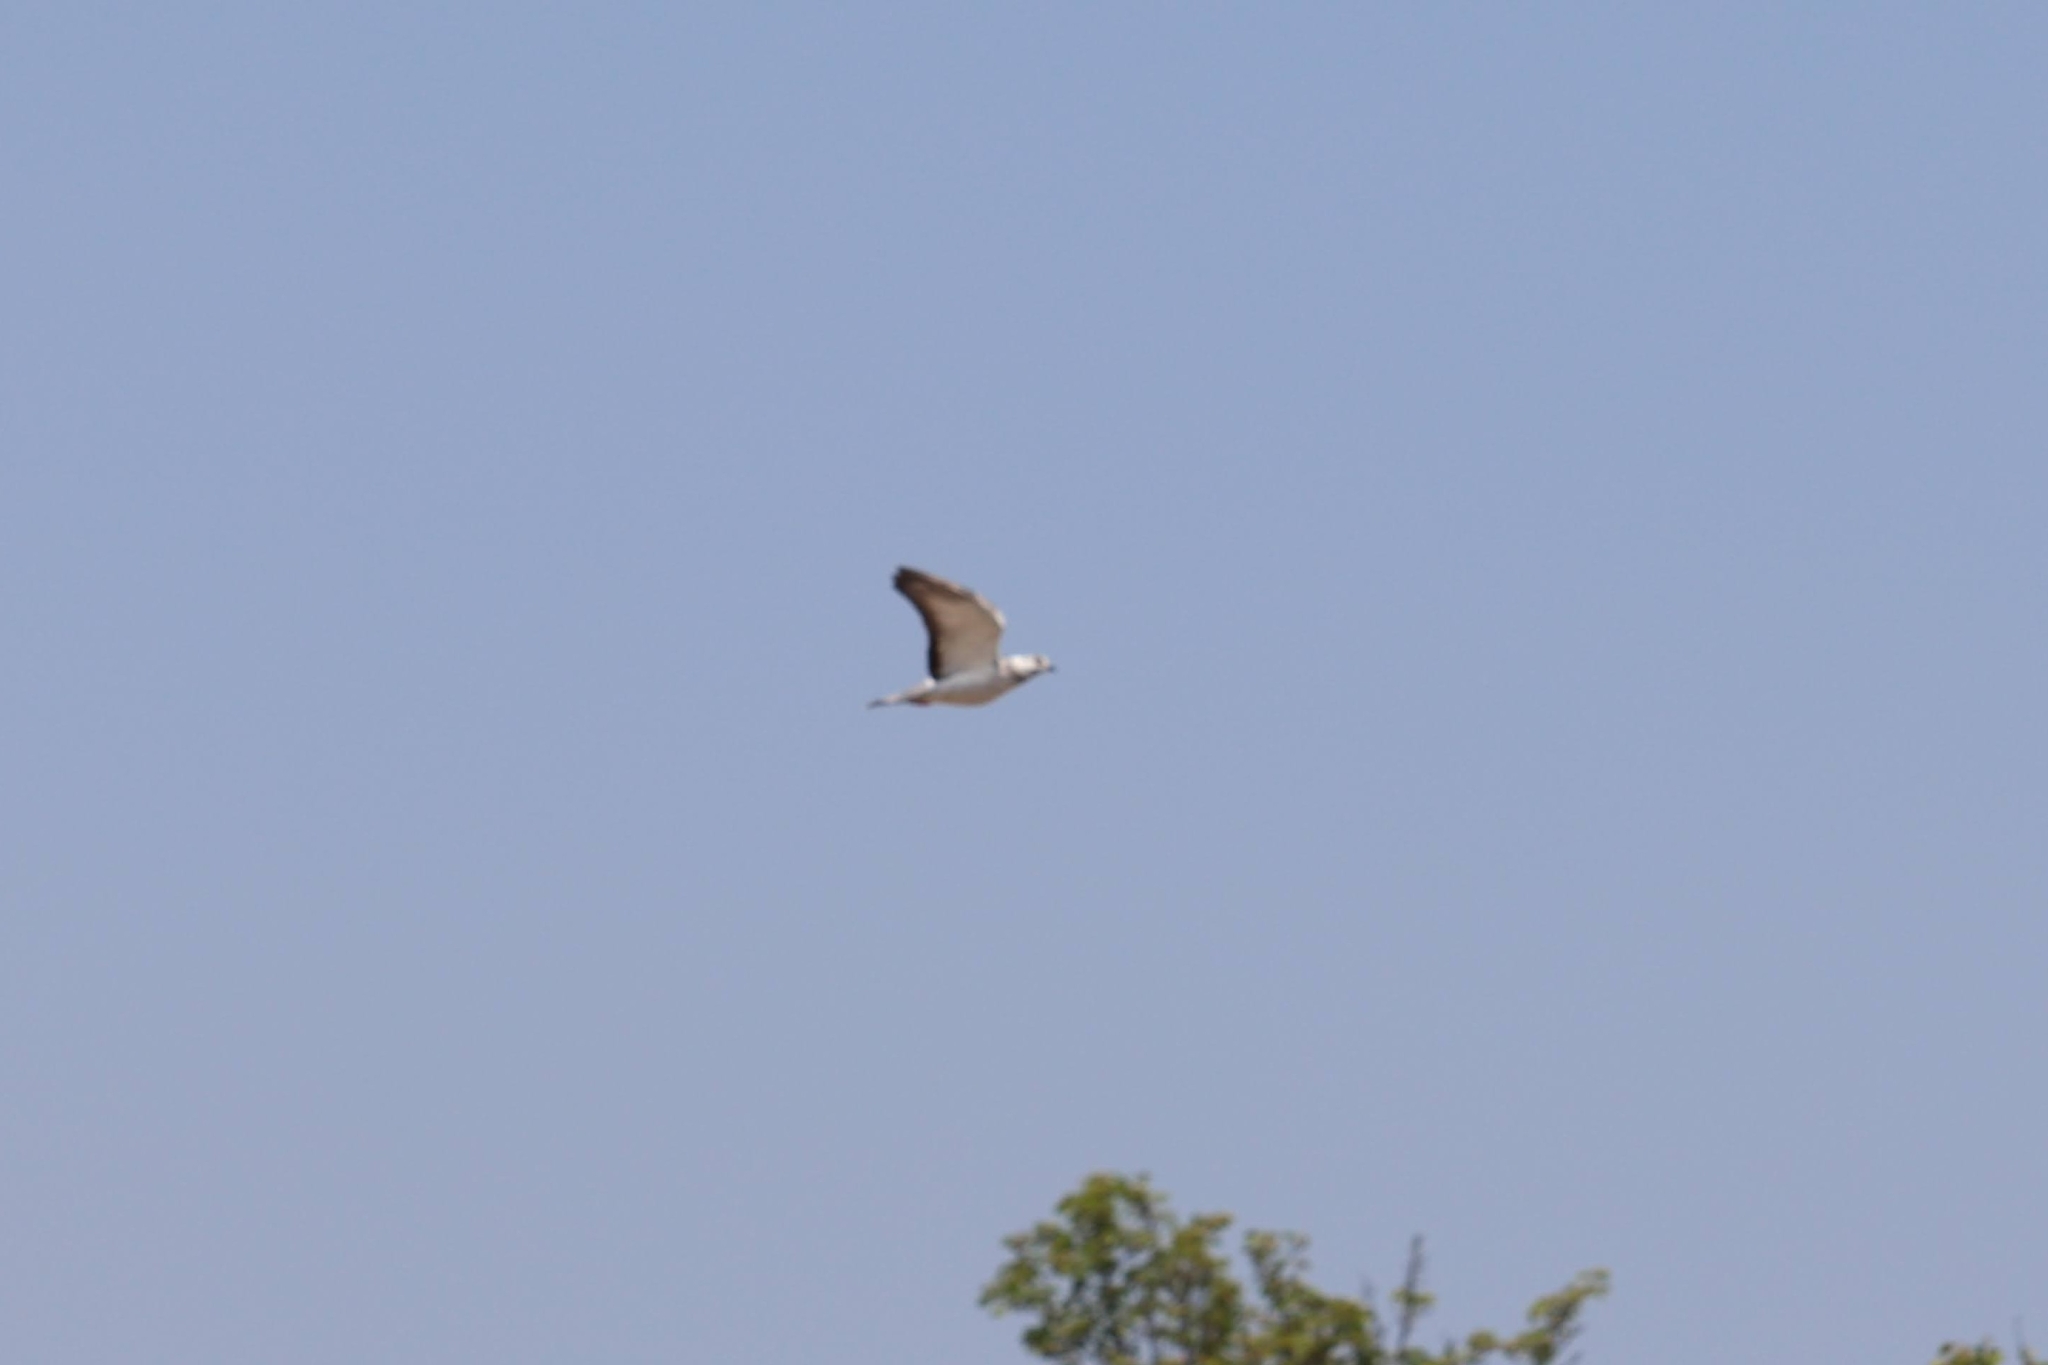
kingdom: Animalia
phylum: Chordata
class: Aves
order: Columbiformes
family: Columbidae
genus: Columba
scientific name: Columba livia
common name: Rock pigeon
